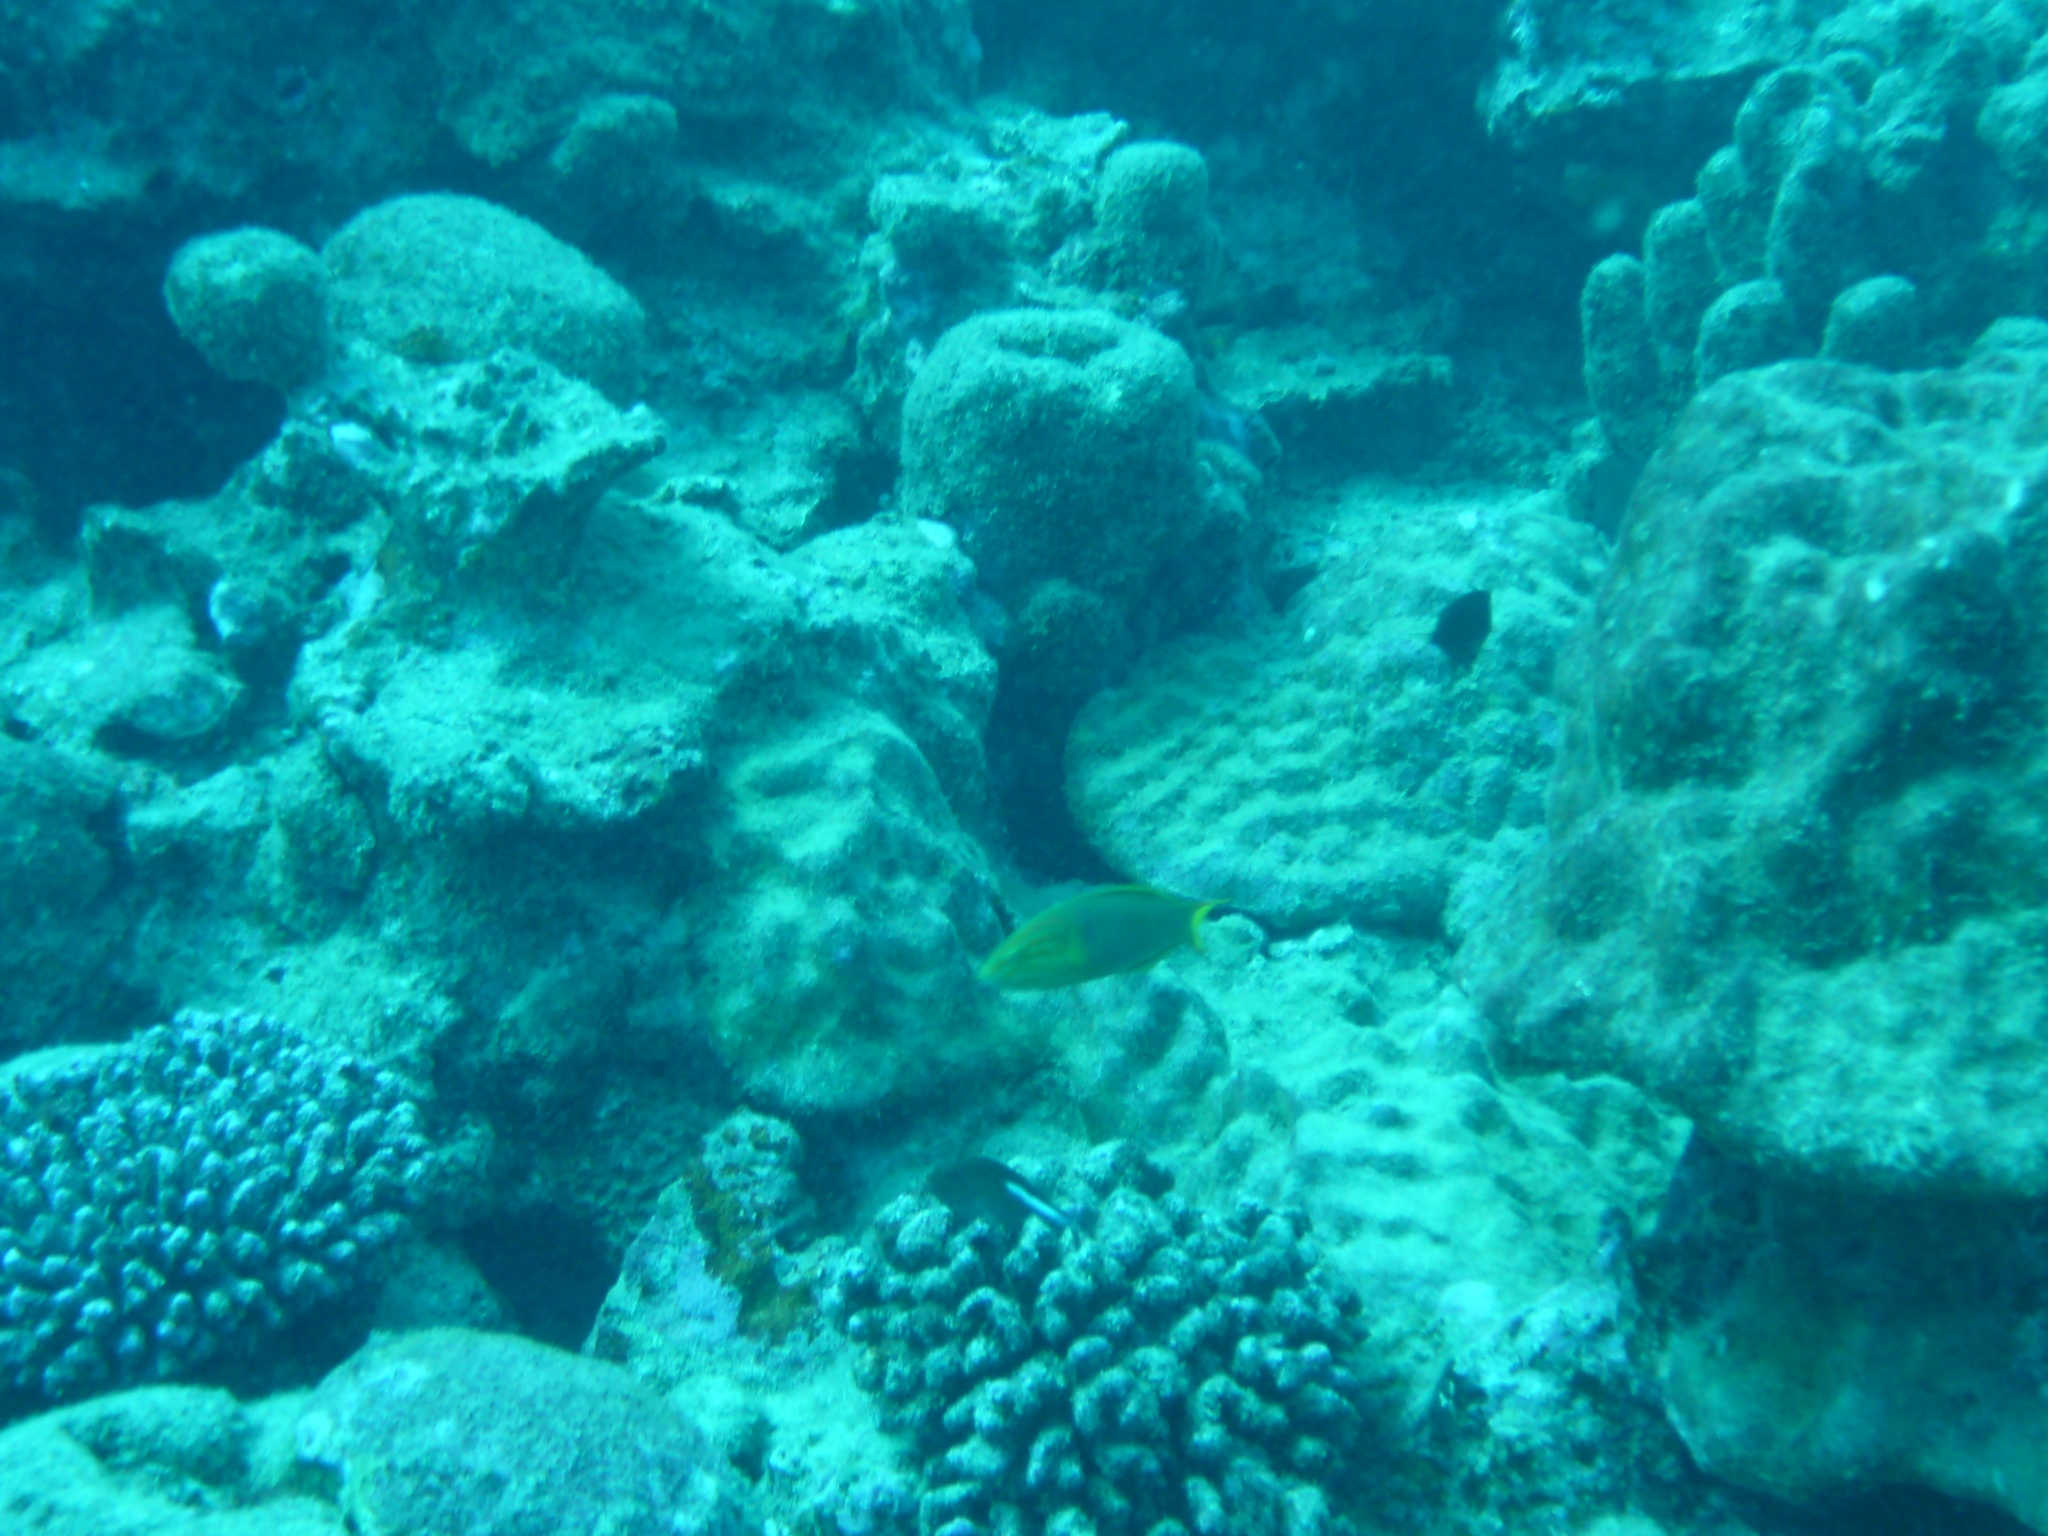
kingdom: Animalia
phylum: Chordata
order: Perciformes
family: Labridae
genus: Thalassoma
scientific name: Thalassoma lutescens
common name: Green moon wrasse
